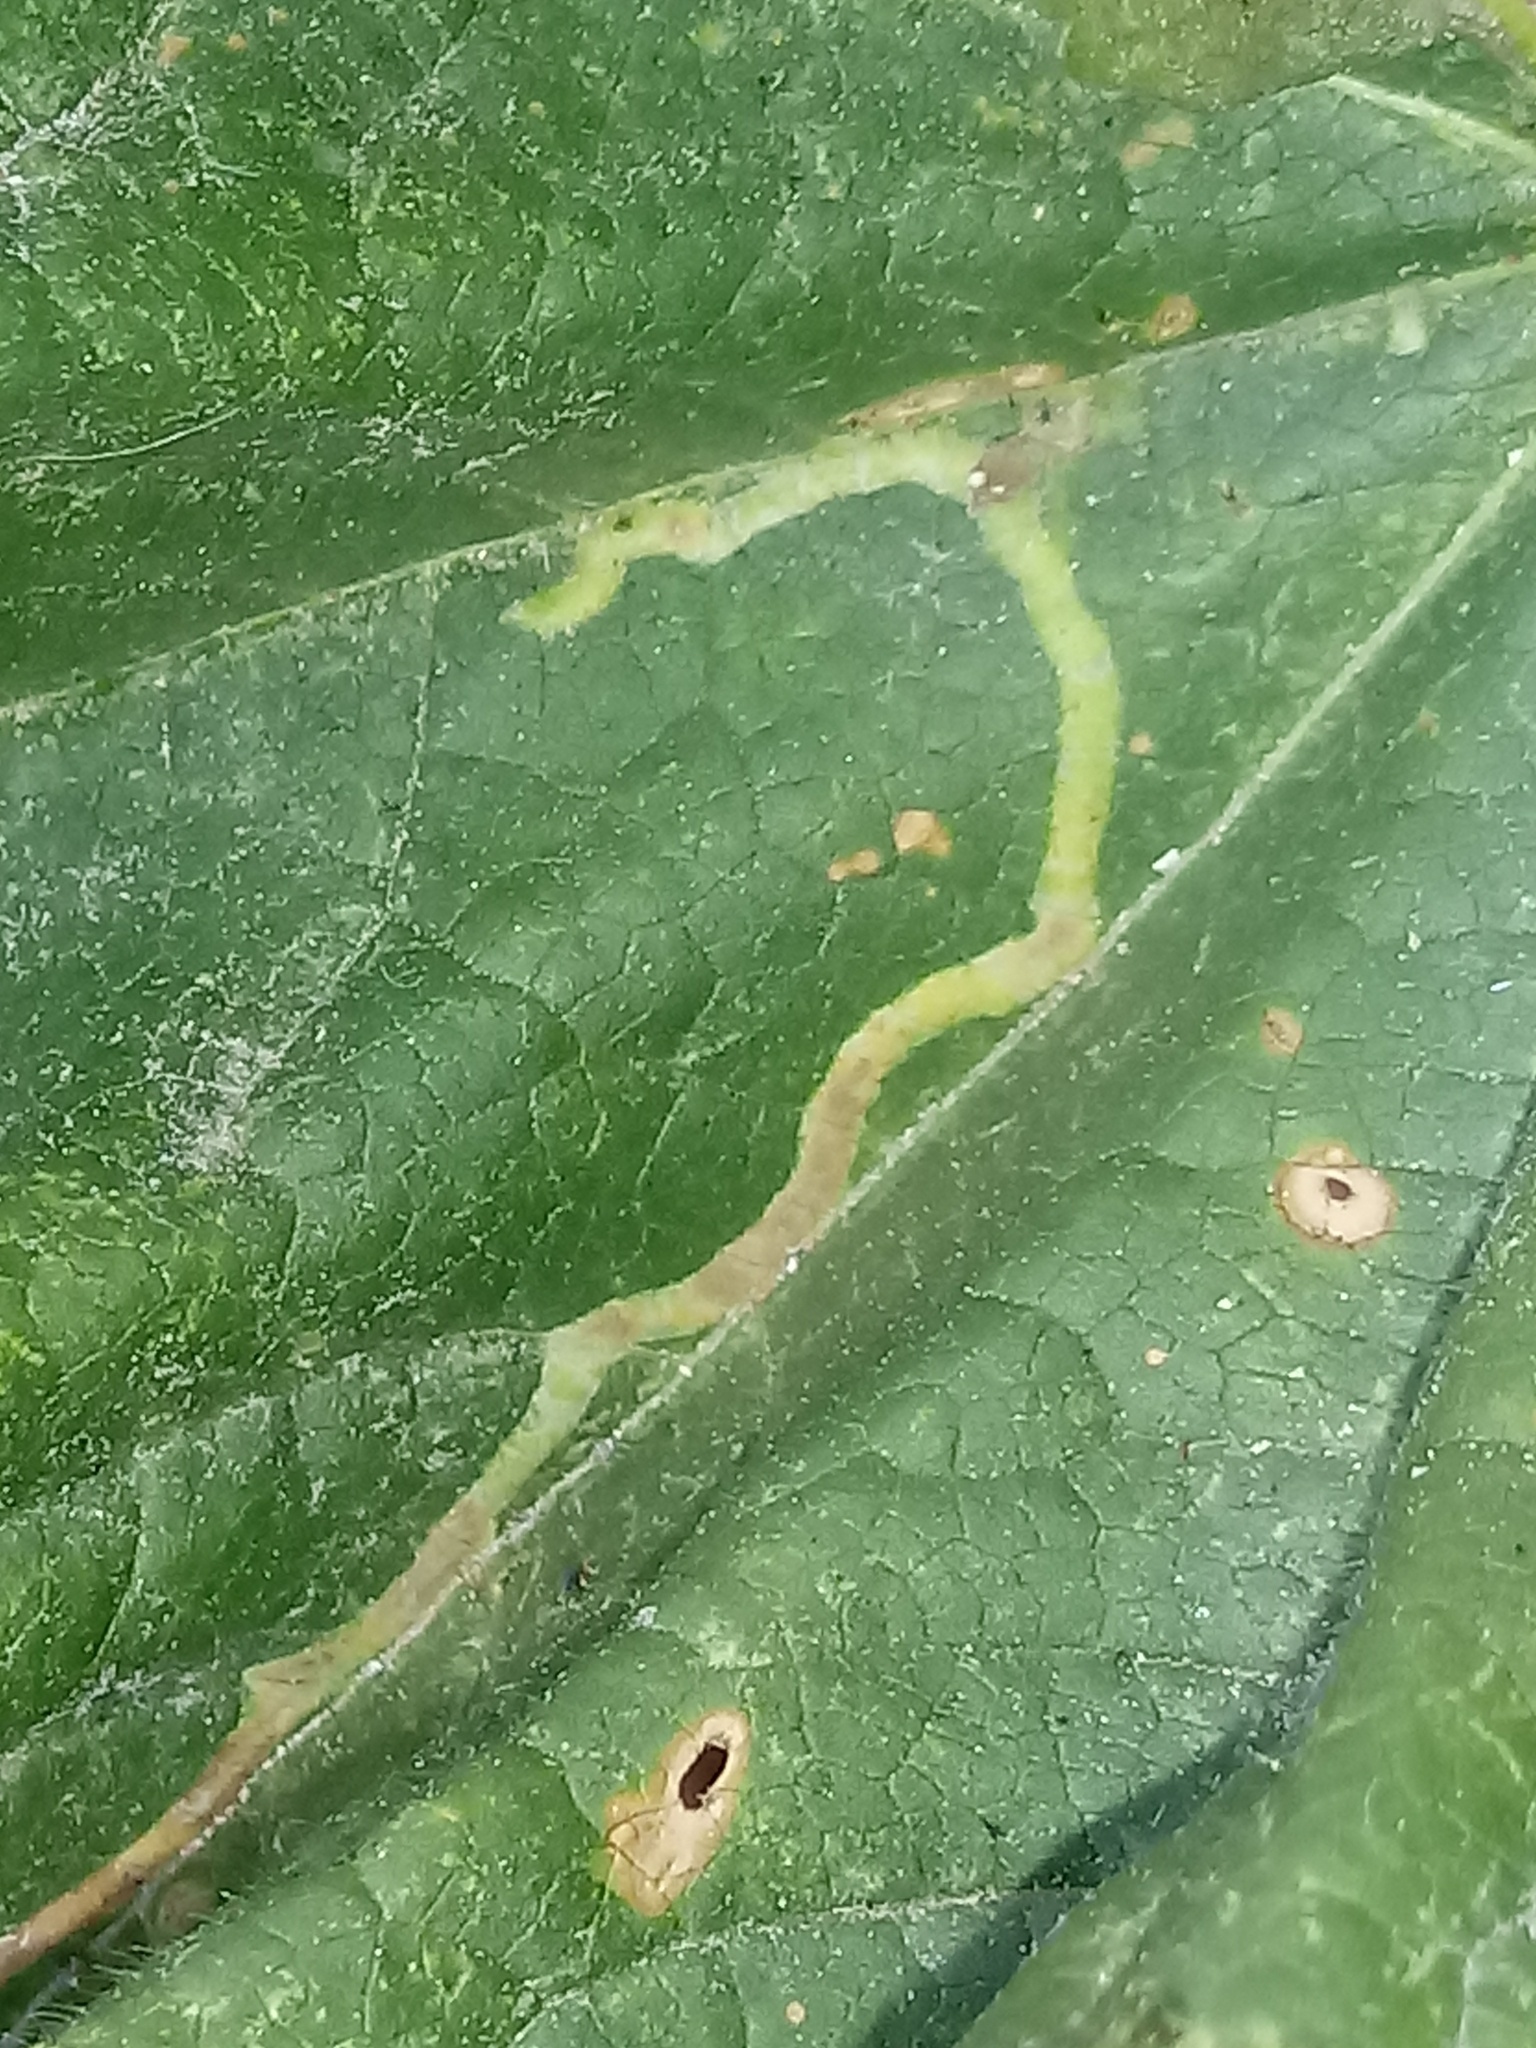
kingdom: Animalia
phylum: Arthropoda
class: Insecta
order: Diptera
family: Agromyzidae
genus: Calycomyza
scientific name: Calycomyza malvae
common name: Mallow leaf miner
